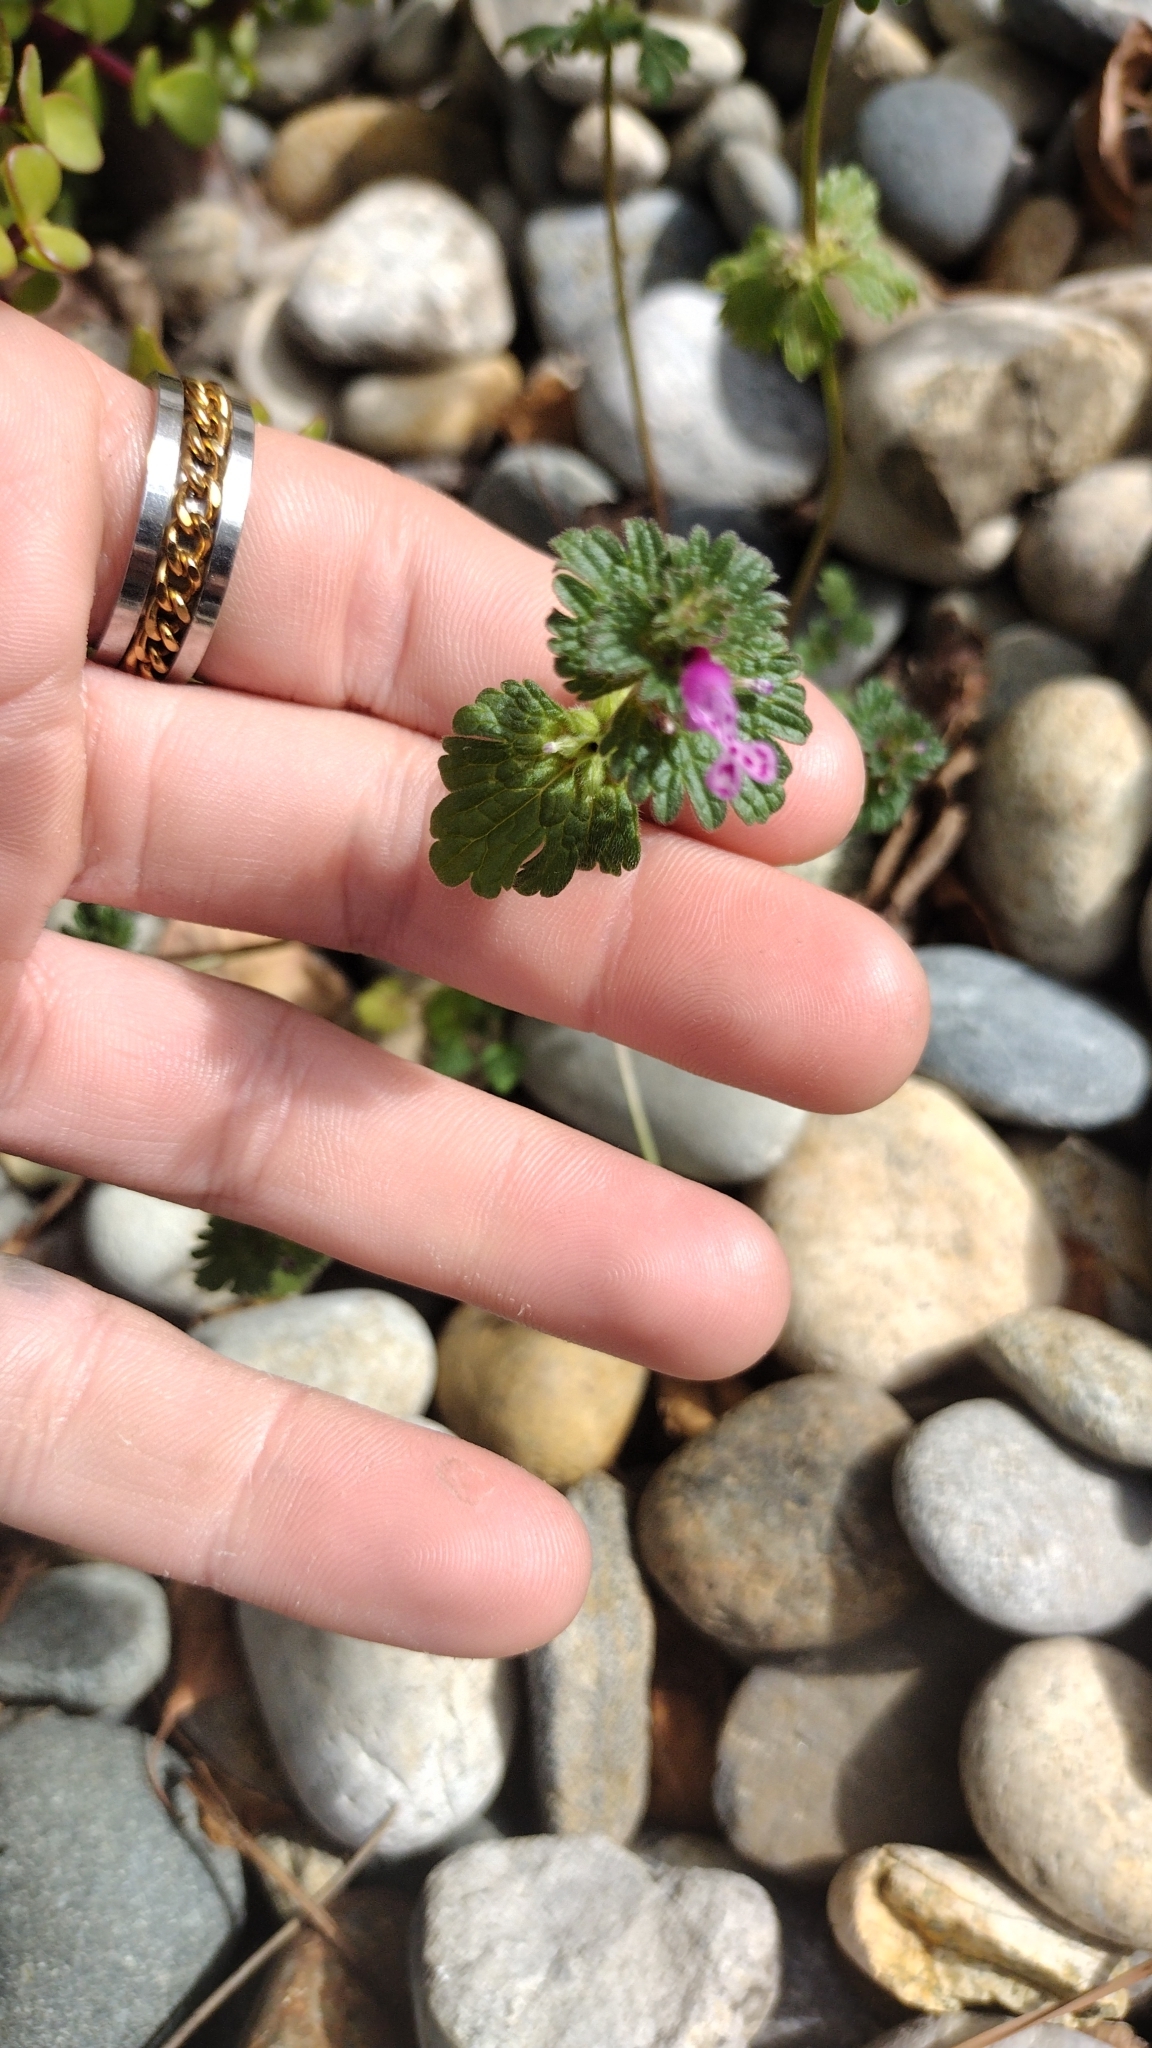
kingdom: Plantae
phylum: Tracheophyta
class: Magnoliopsida
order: Lamiales
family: Lamiaceae
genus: Lamium
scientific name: Lamium amplexicaule
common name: Henbit dead-nettle
